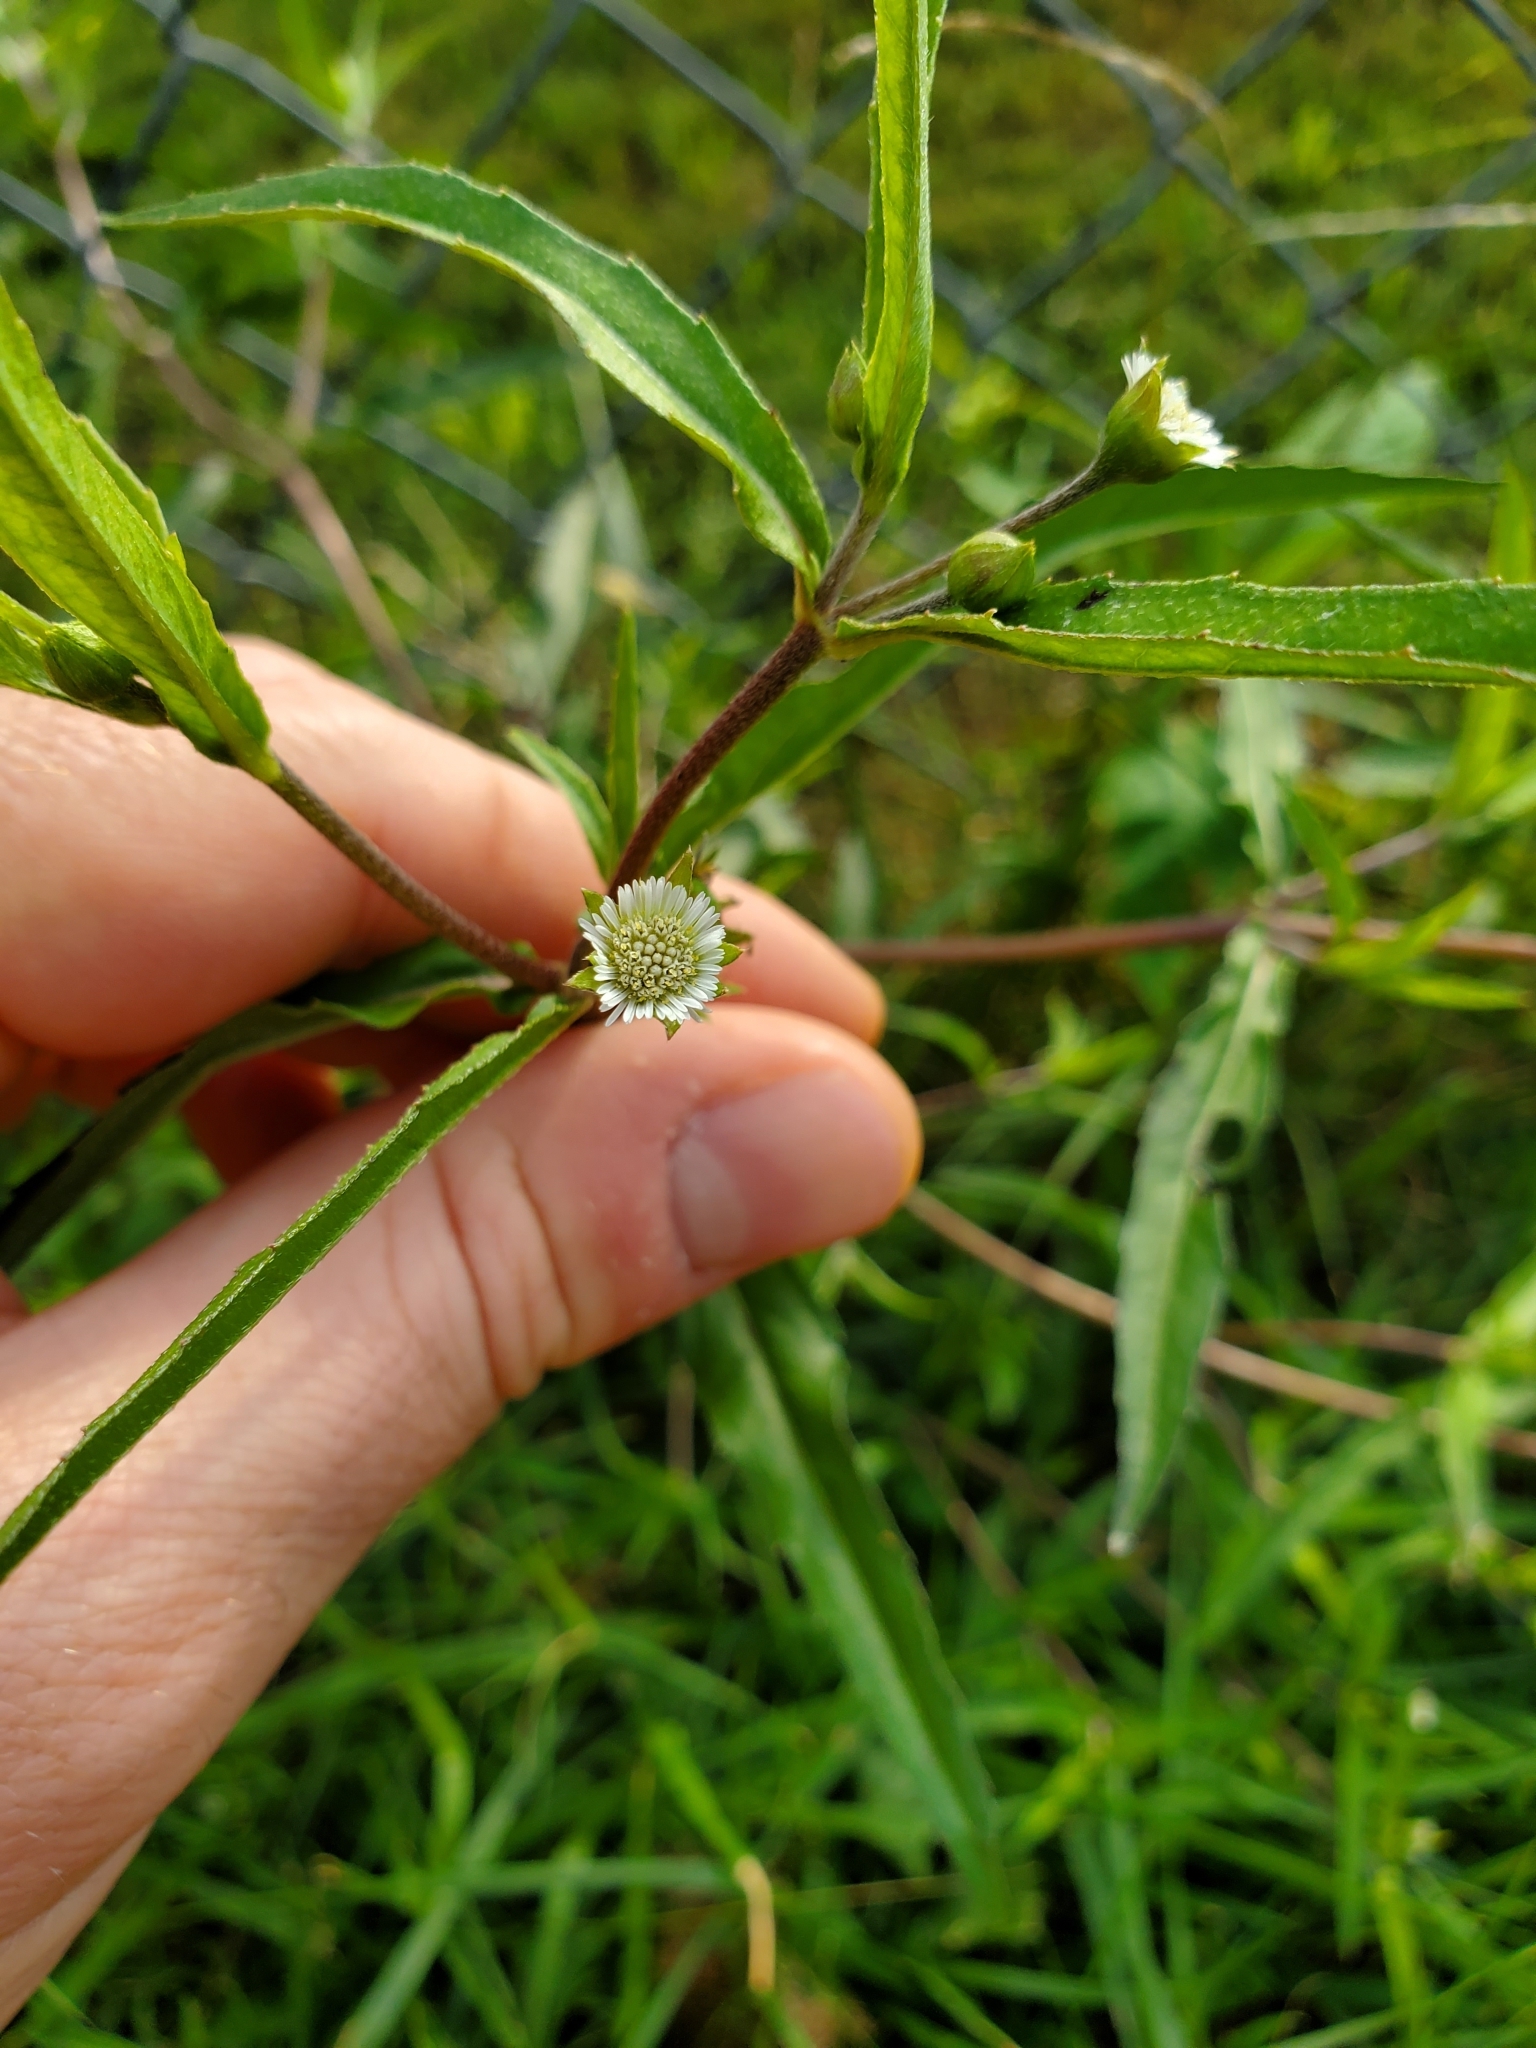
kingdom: Plantae
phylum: Tracheophyta
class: Magnoliopsida
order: Asterales
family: Asteraceae
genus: Eclipta
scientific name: Eclipta prostrata
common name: False daisy
